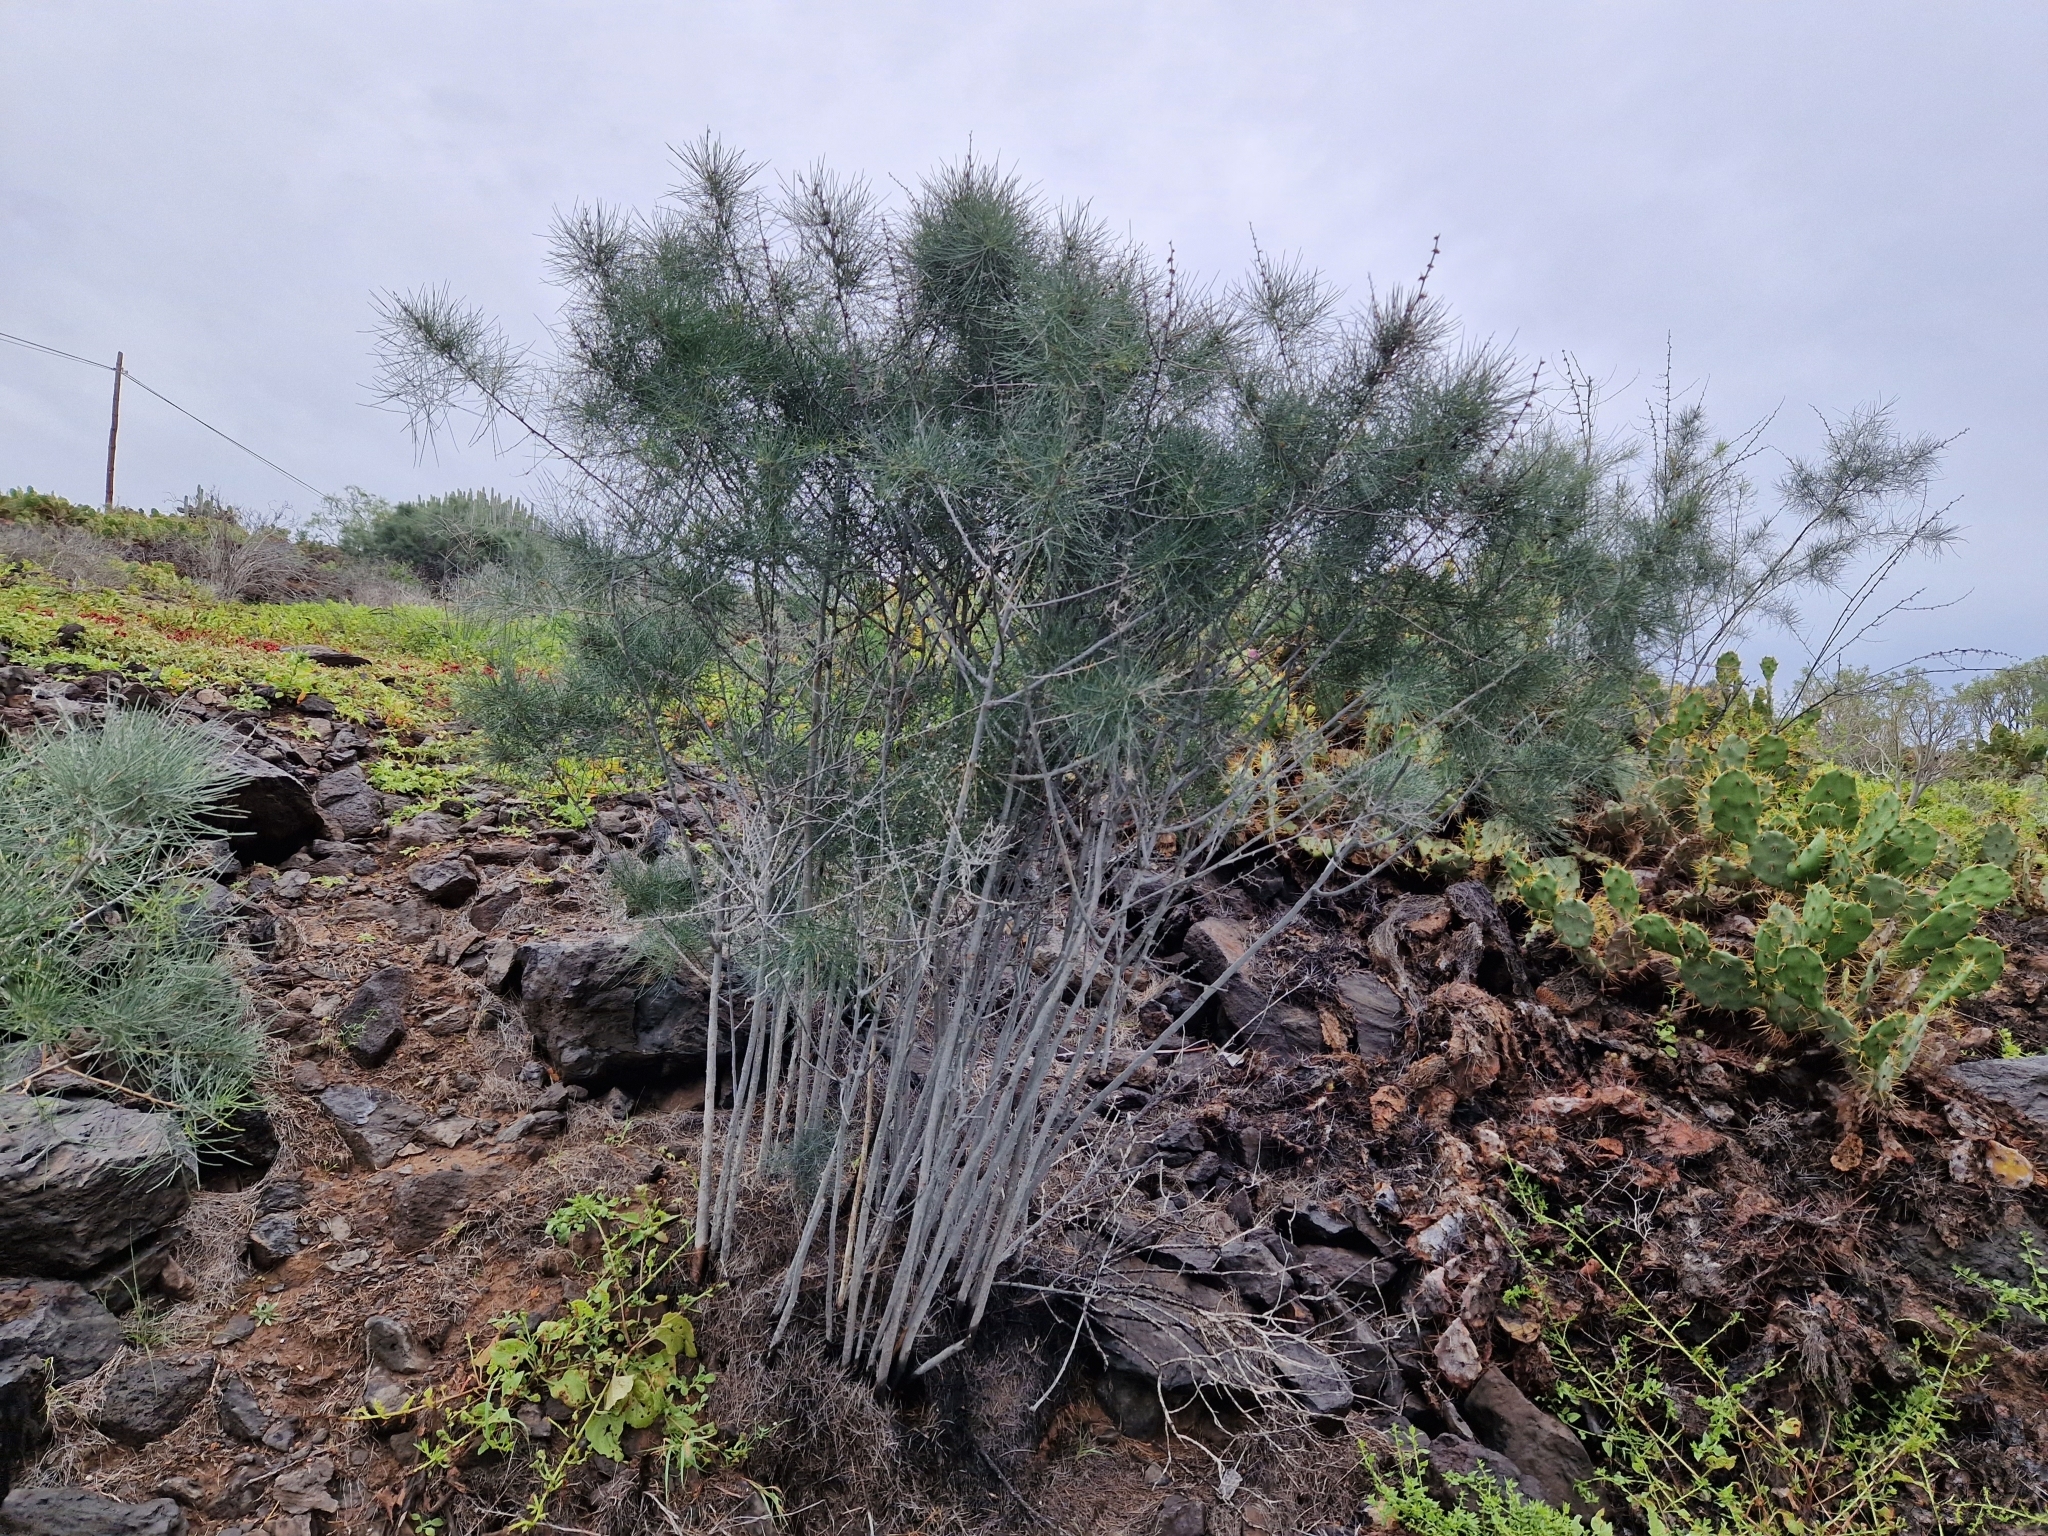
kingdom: Plantae
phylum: Tracheophyta
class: Liliopsida
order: Asparagales
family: Asparagaceae
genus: Asparagus
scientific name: Asparagus arborescens
